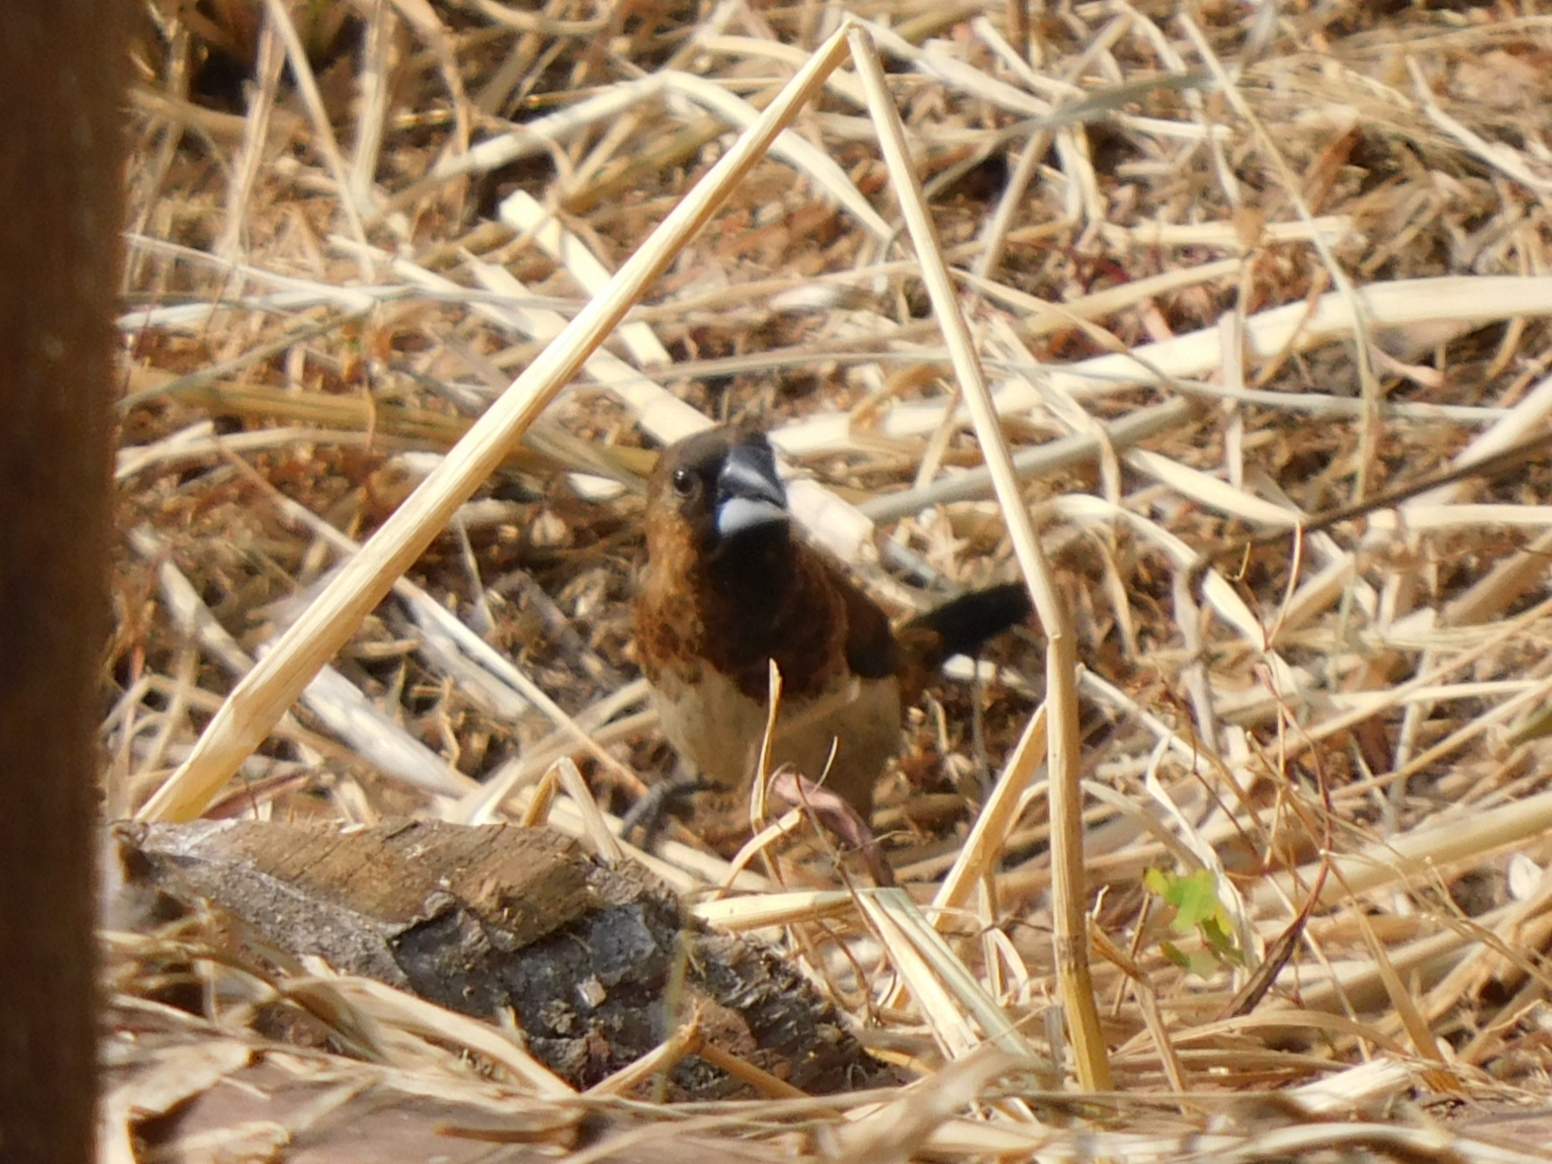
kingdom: Animalia
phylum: Chordata
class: Aves
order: Passeriformes
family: Estrildidae
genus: Lonchura
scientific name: Lonchura striata
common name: White-rumped munia
